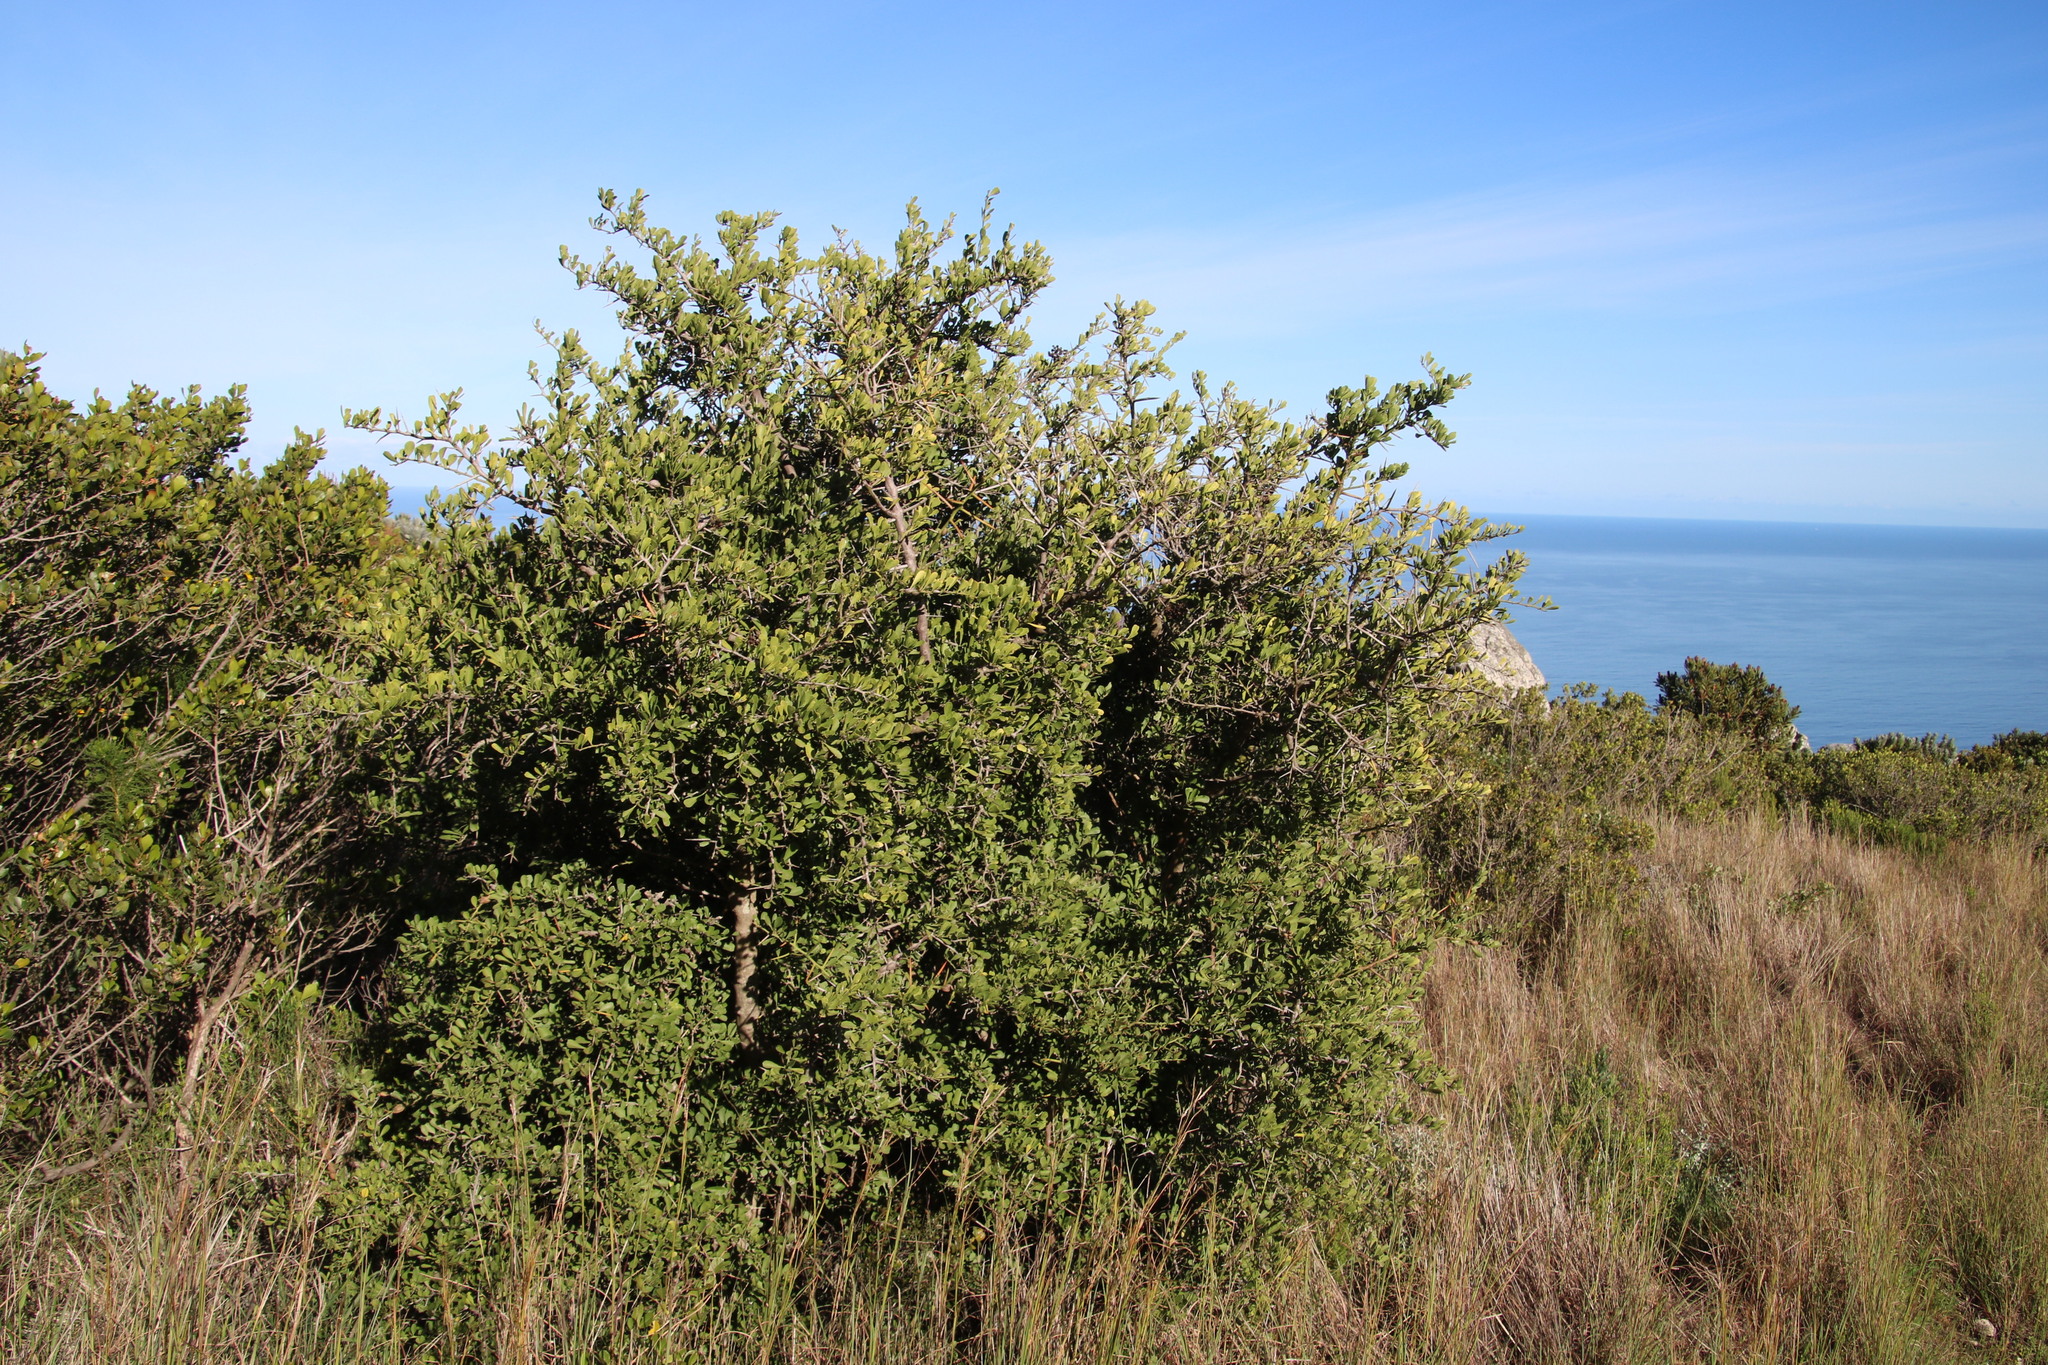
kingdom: Plantae
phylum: Tracheophyta
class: Magnoliopsida
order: Celastrales
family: Celastraceae
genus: Gymnosporia
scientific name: Gymnosporia buxifolia
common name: Common spike-thorn
